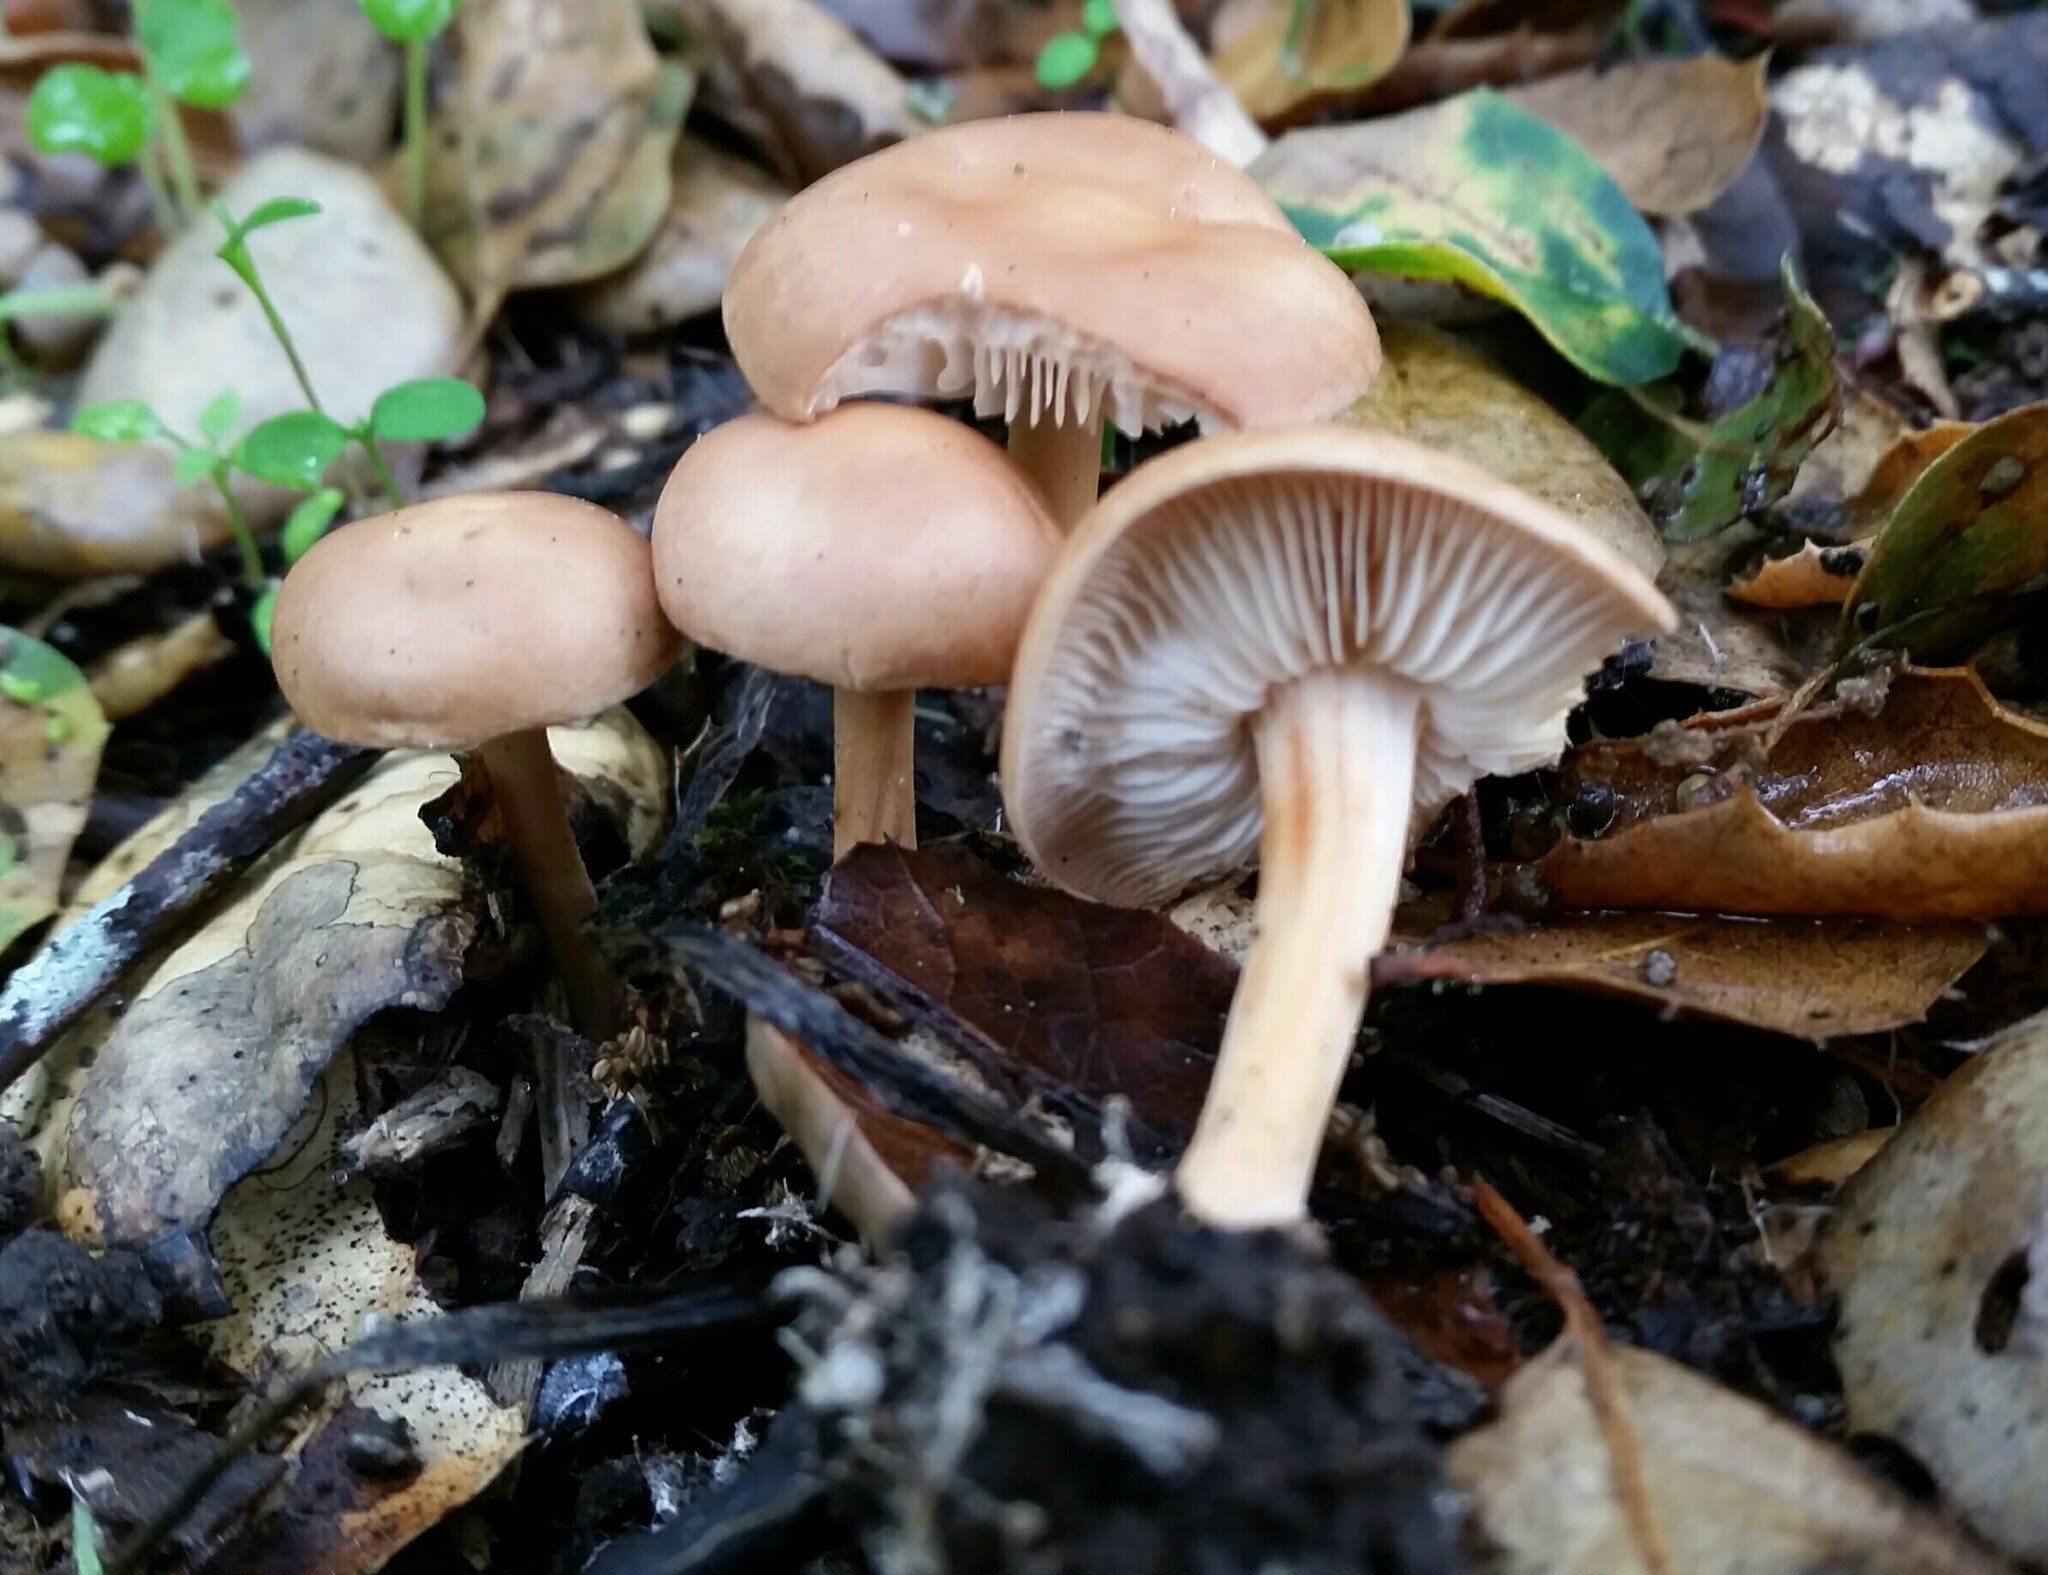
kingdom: Fungi
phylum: Basidiomycota
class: Agaricomycetes
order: Agaricales
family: Omphalotaceae
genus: Gymnopus
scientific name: Gymnopus dryophilus
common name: Penny top
